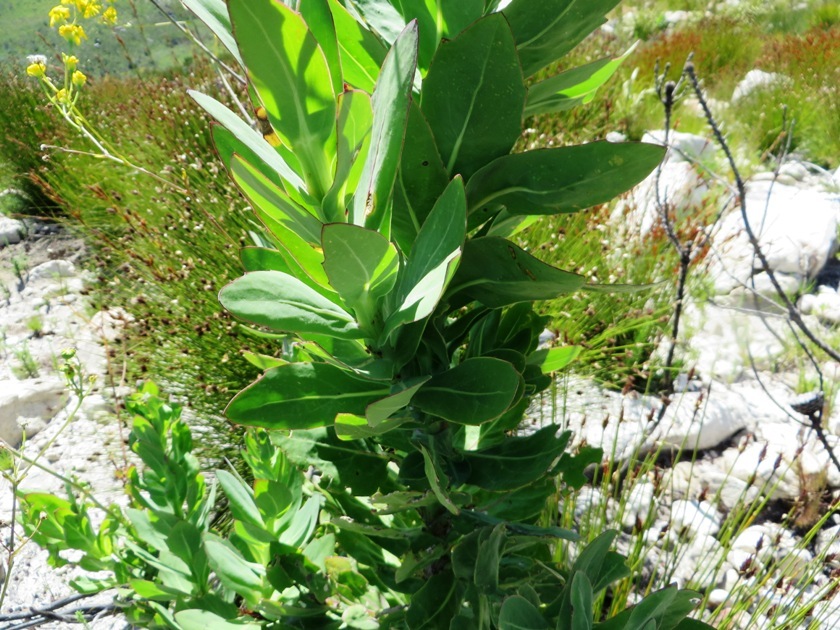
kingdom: Plantae
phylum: Tracheophyta
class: Magnoliopsida
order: Asterales
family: Asteraceae
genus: Othonna
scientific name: Othonna quinquedentata
